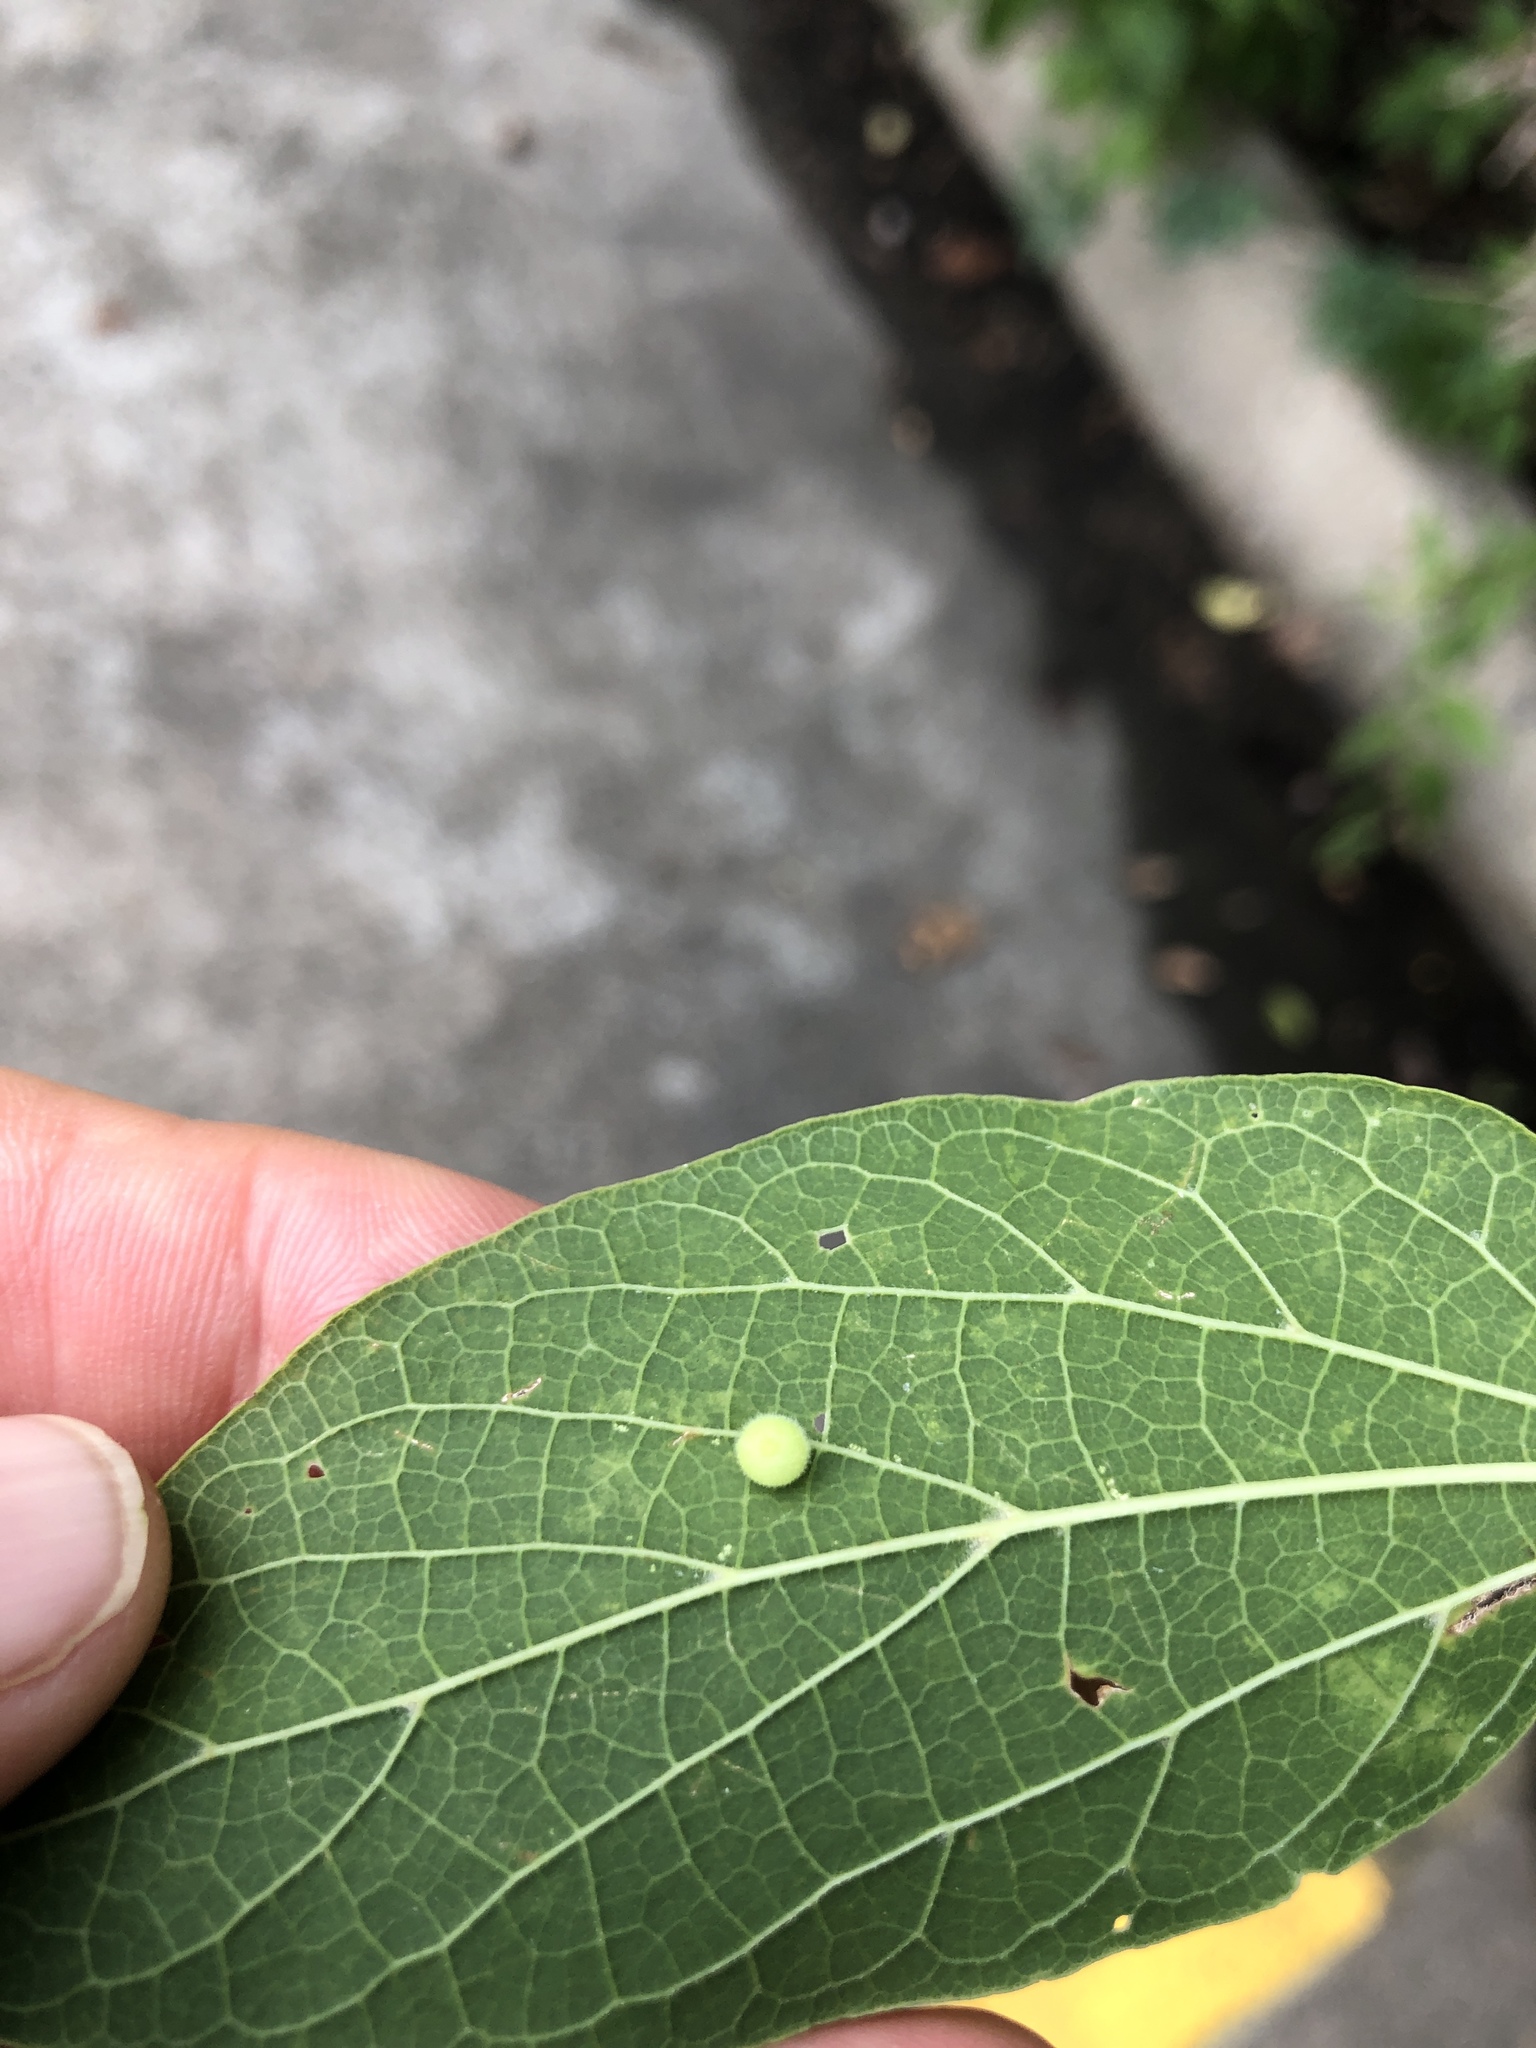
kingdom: Animalia
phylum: Arthropoda
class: Insecta
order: Diptera
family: Cecidomyiidae
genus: Celticecis
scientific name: Celticecis globosa
